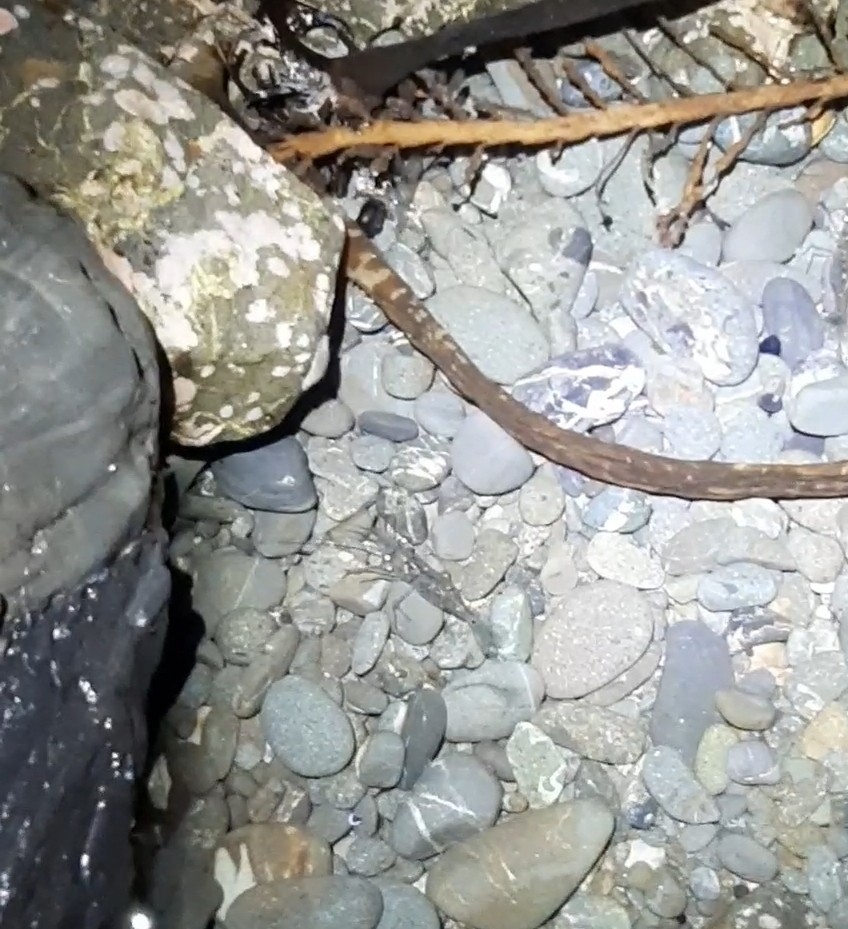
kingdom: Animalia
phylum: Arthropoda
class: Malacostraca
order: Decapoda
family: Palaemonidae
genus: Palaemon
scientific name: Palaemon affinis
